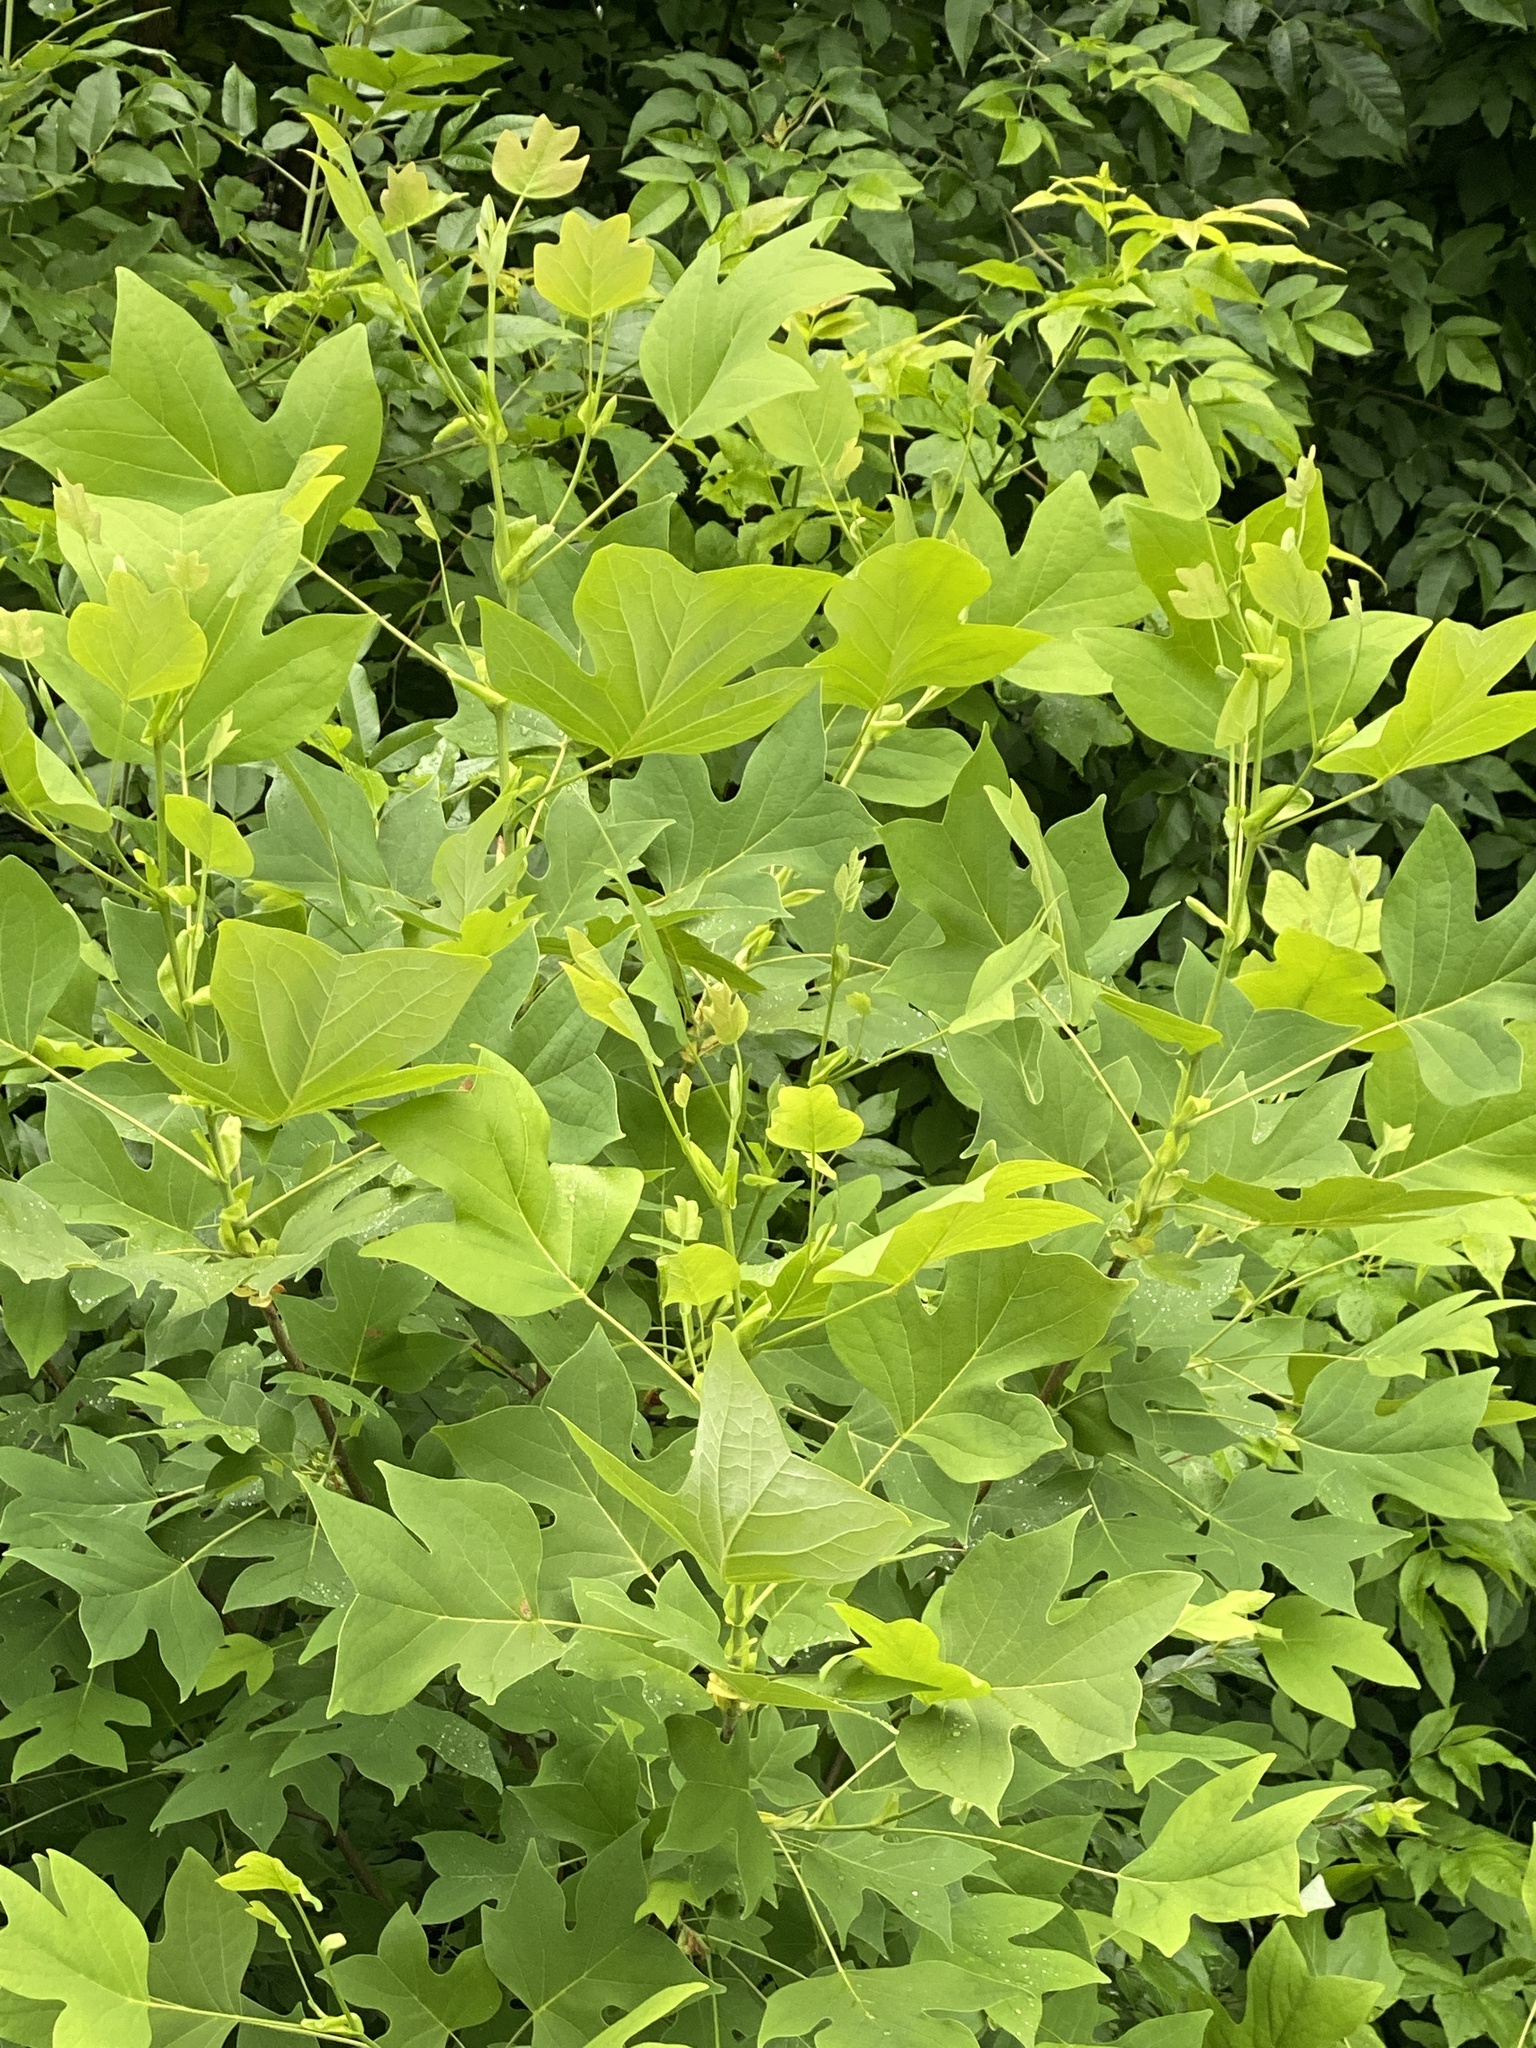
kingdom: Plantae
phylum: Tracheophyta
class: Magnoliopsida
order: Magnoliales
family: Magnoliaceae
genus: Liriodendron
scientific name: Liriodendron tulipifera
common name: Tulip tree
